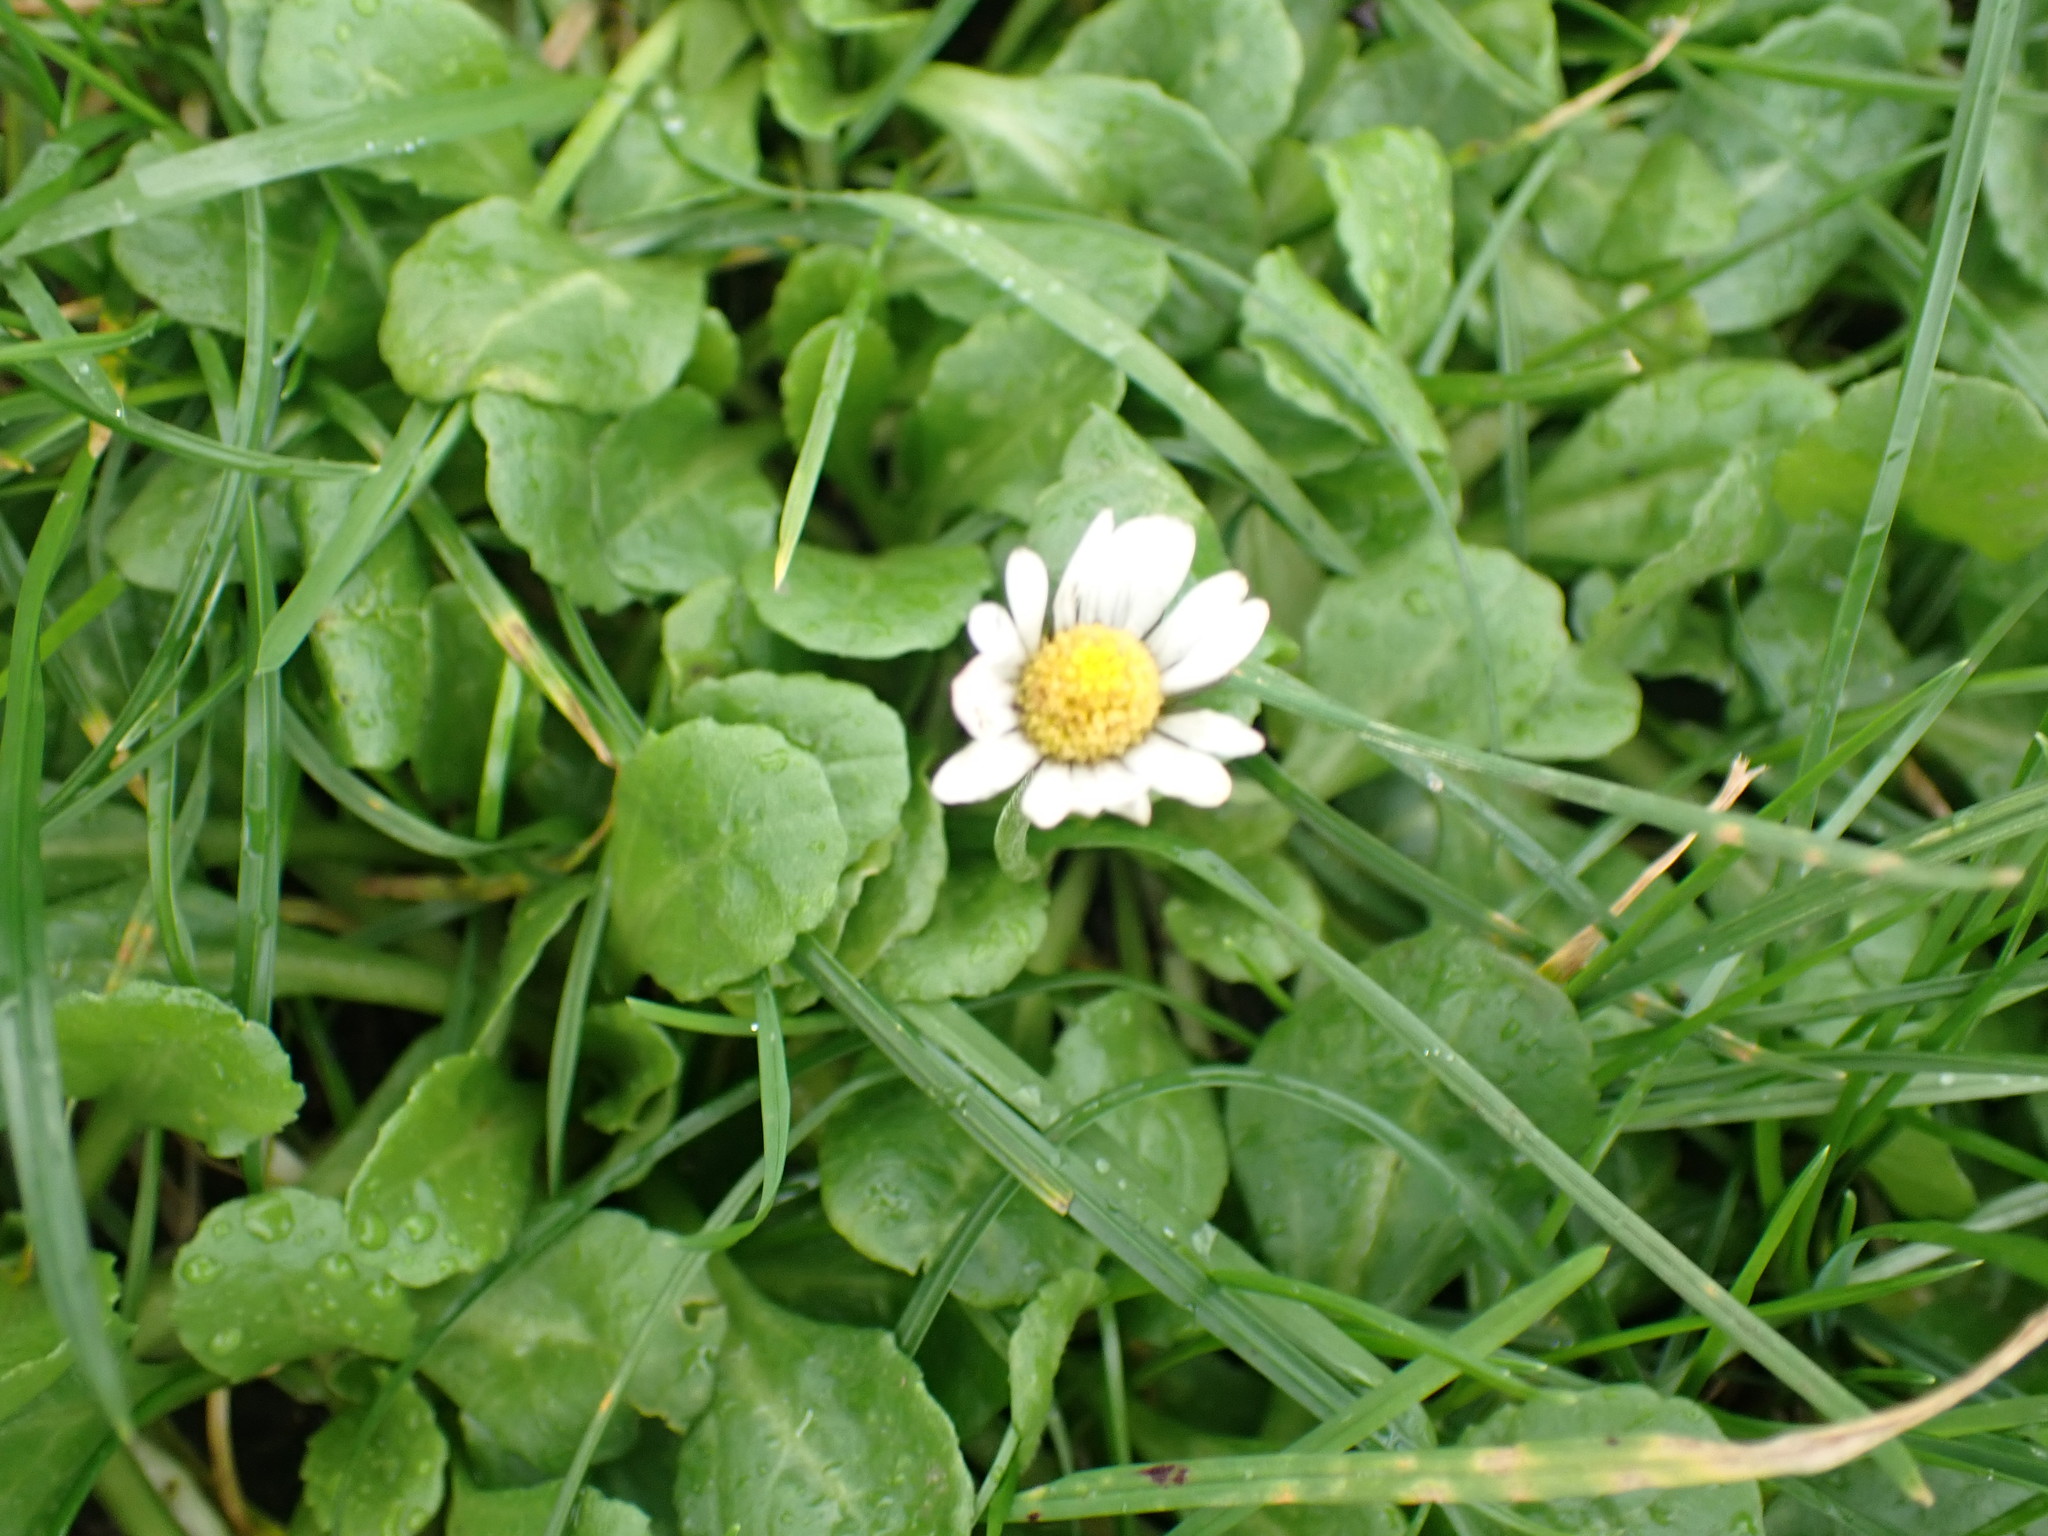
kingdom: Plantae
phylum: Tracheophyta
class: Magnoliopsida
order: Asterales
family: Asteraceae
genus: Bellis
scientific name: Bellis perennis
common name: Lawndaisy
